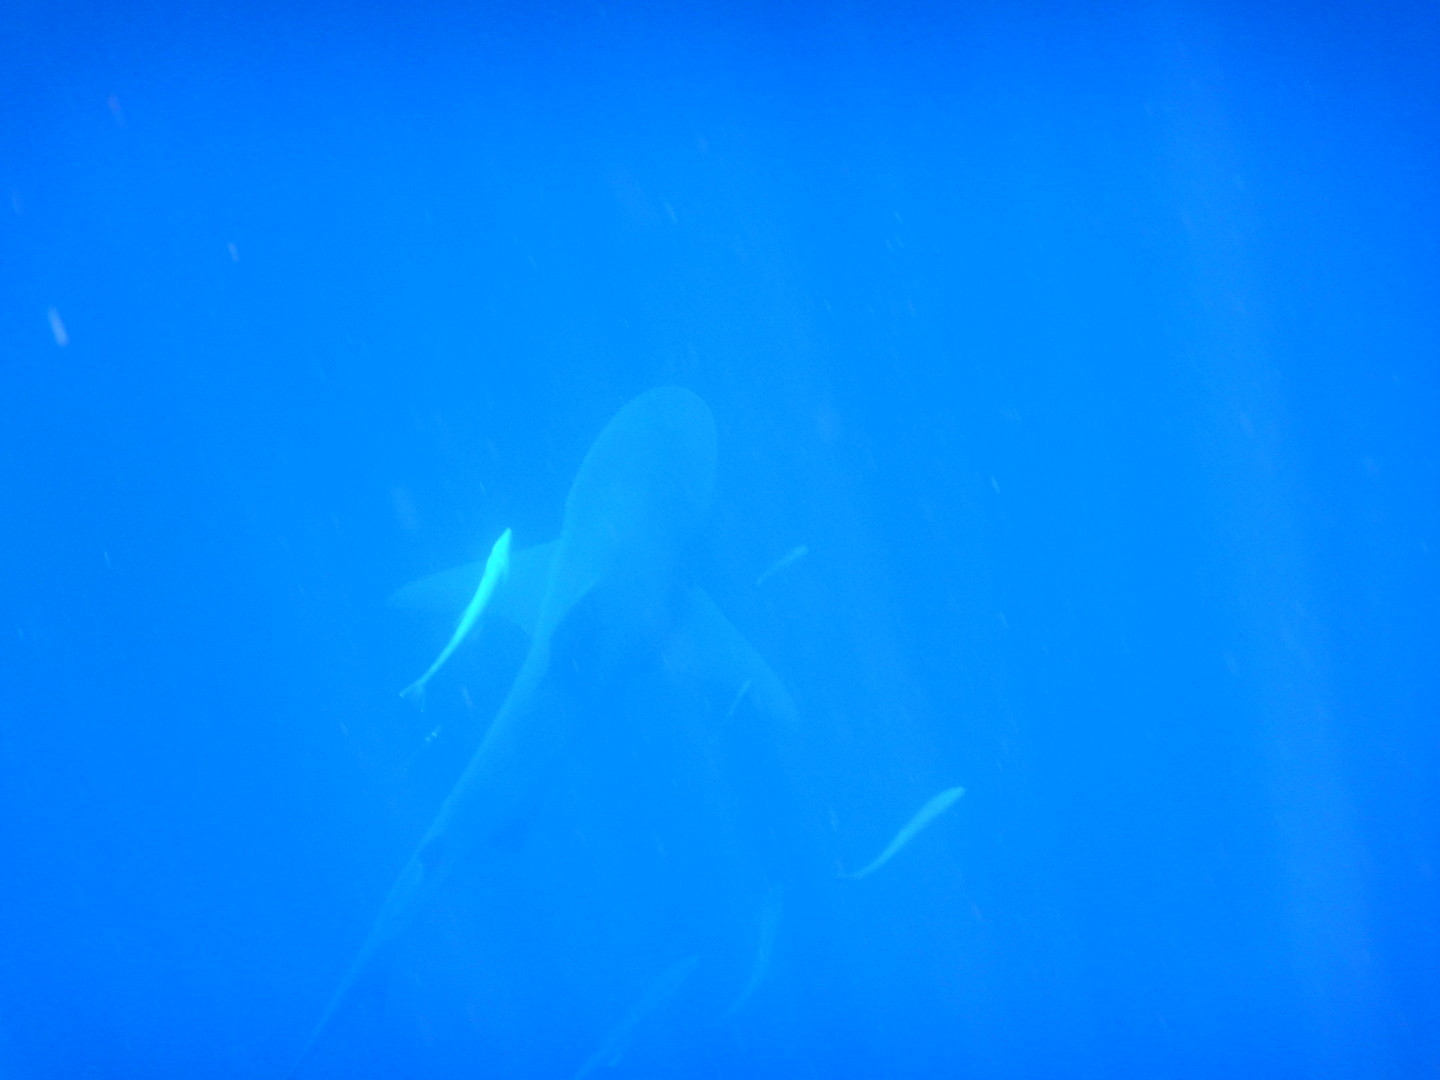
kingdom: Animalia
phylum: Chordata
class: Elasmobranchii
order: Carcharhiniformes
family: Carcharhinidae
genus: Carcharhinus
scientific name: Carcharhinus leucas
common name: Bull shark
